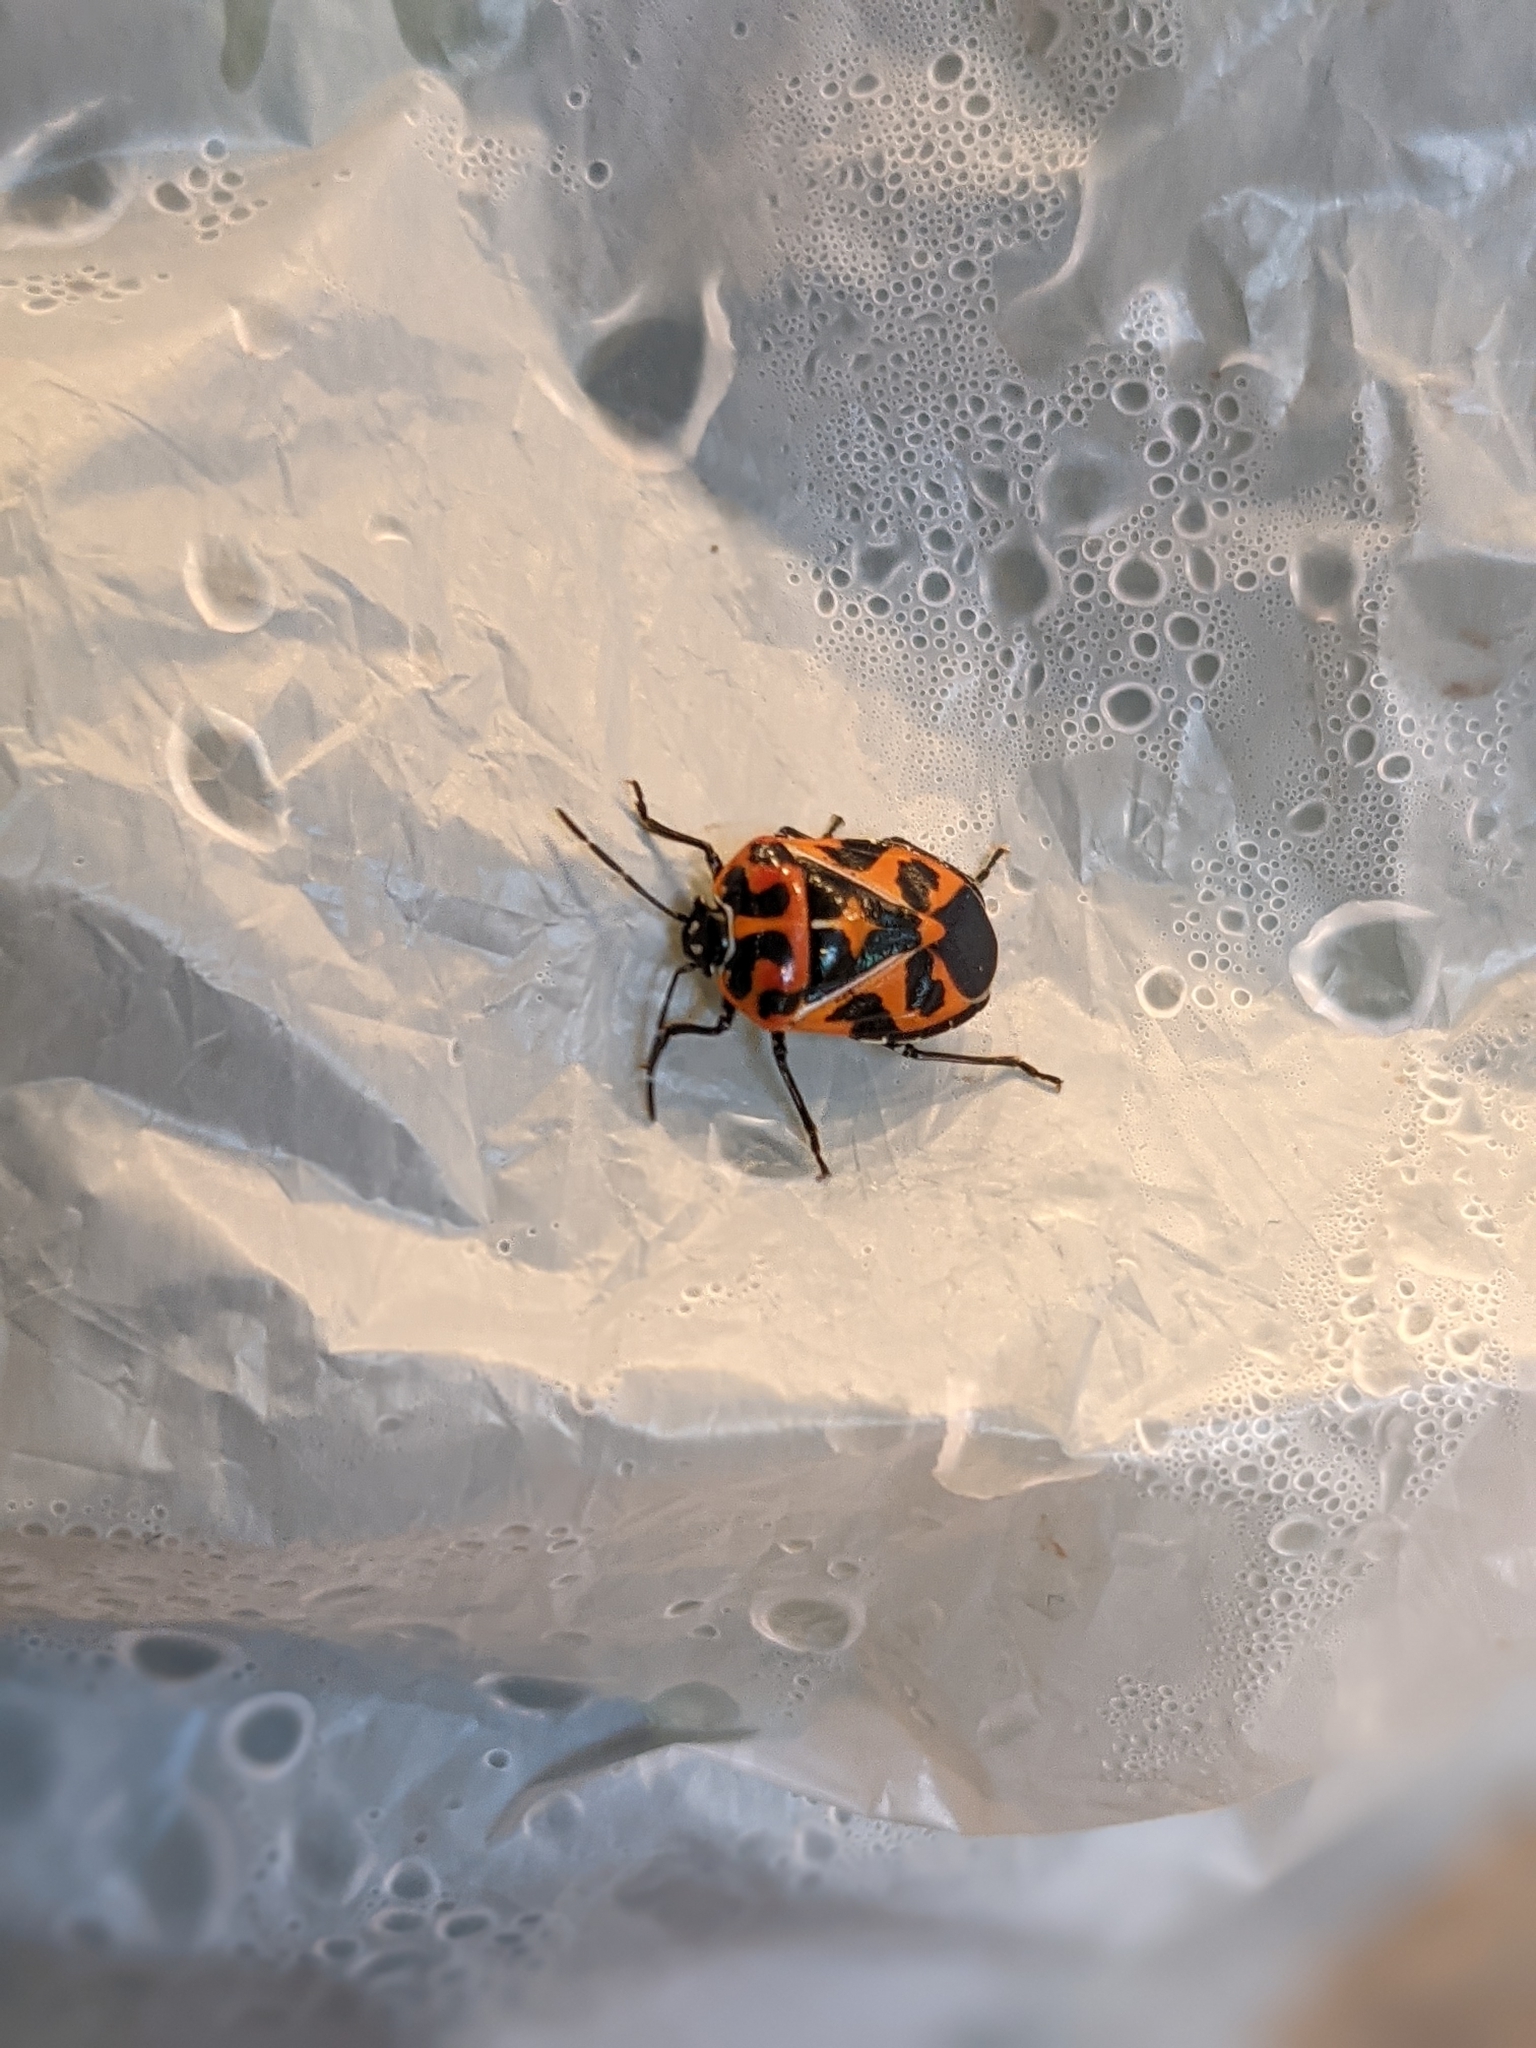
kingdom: Animalia
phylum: Arthropoda
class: Insecta
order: Hemiptera
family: Pentatomidae
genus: Murgantia
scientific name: Murgantia histrionica
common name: Harlequin bug
